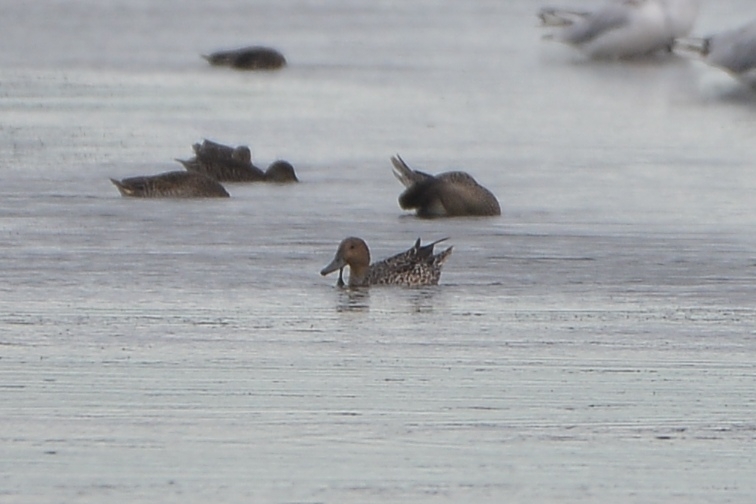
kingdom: Animalia
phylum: Chordata
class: Aves
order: Anseriformes
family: Anatidae
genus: Anas
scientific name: Anas acuta
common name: Northern pintail
